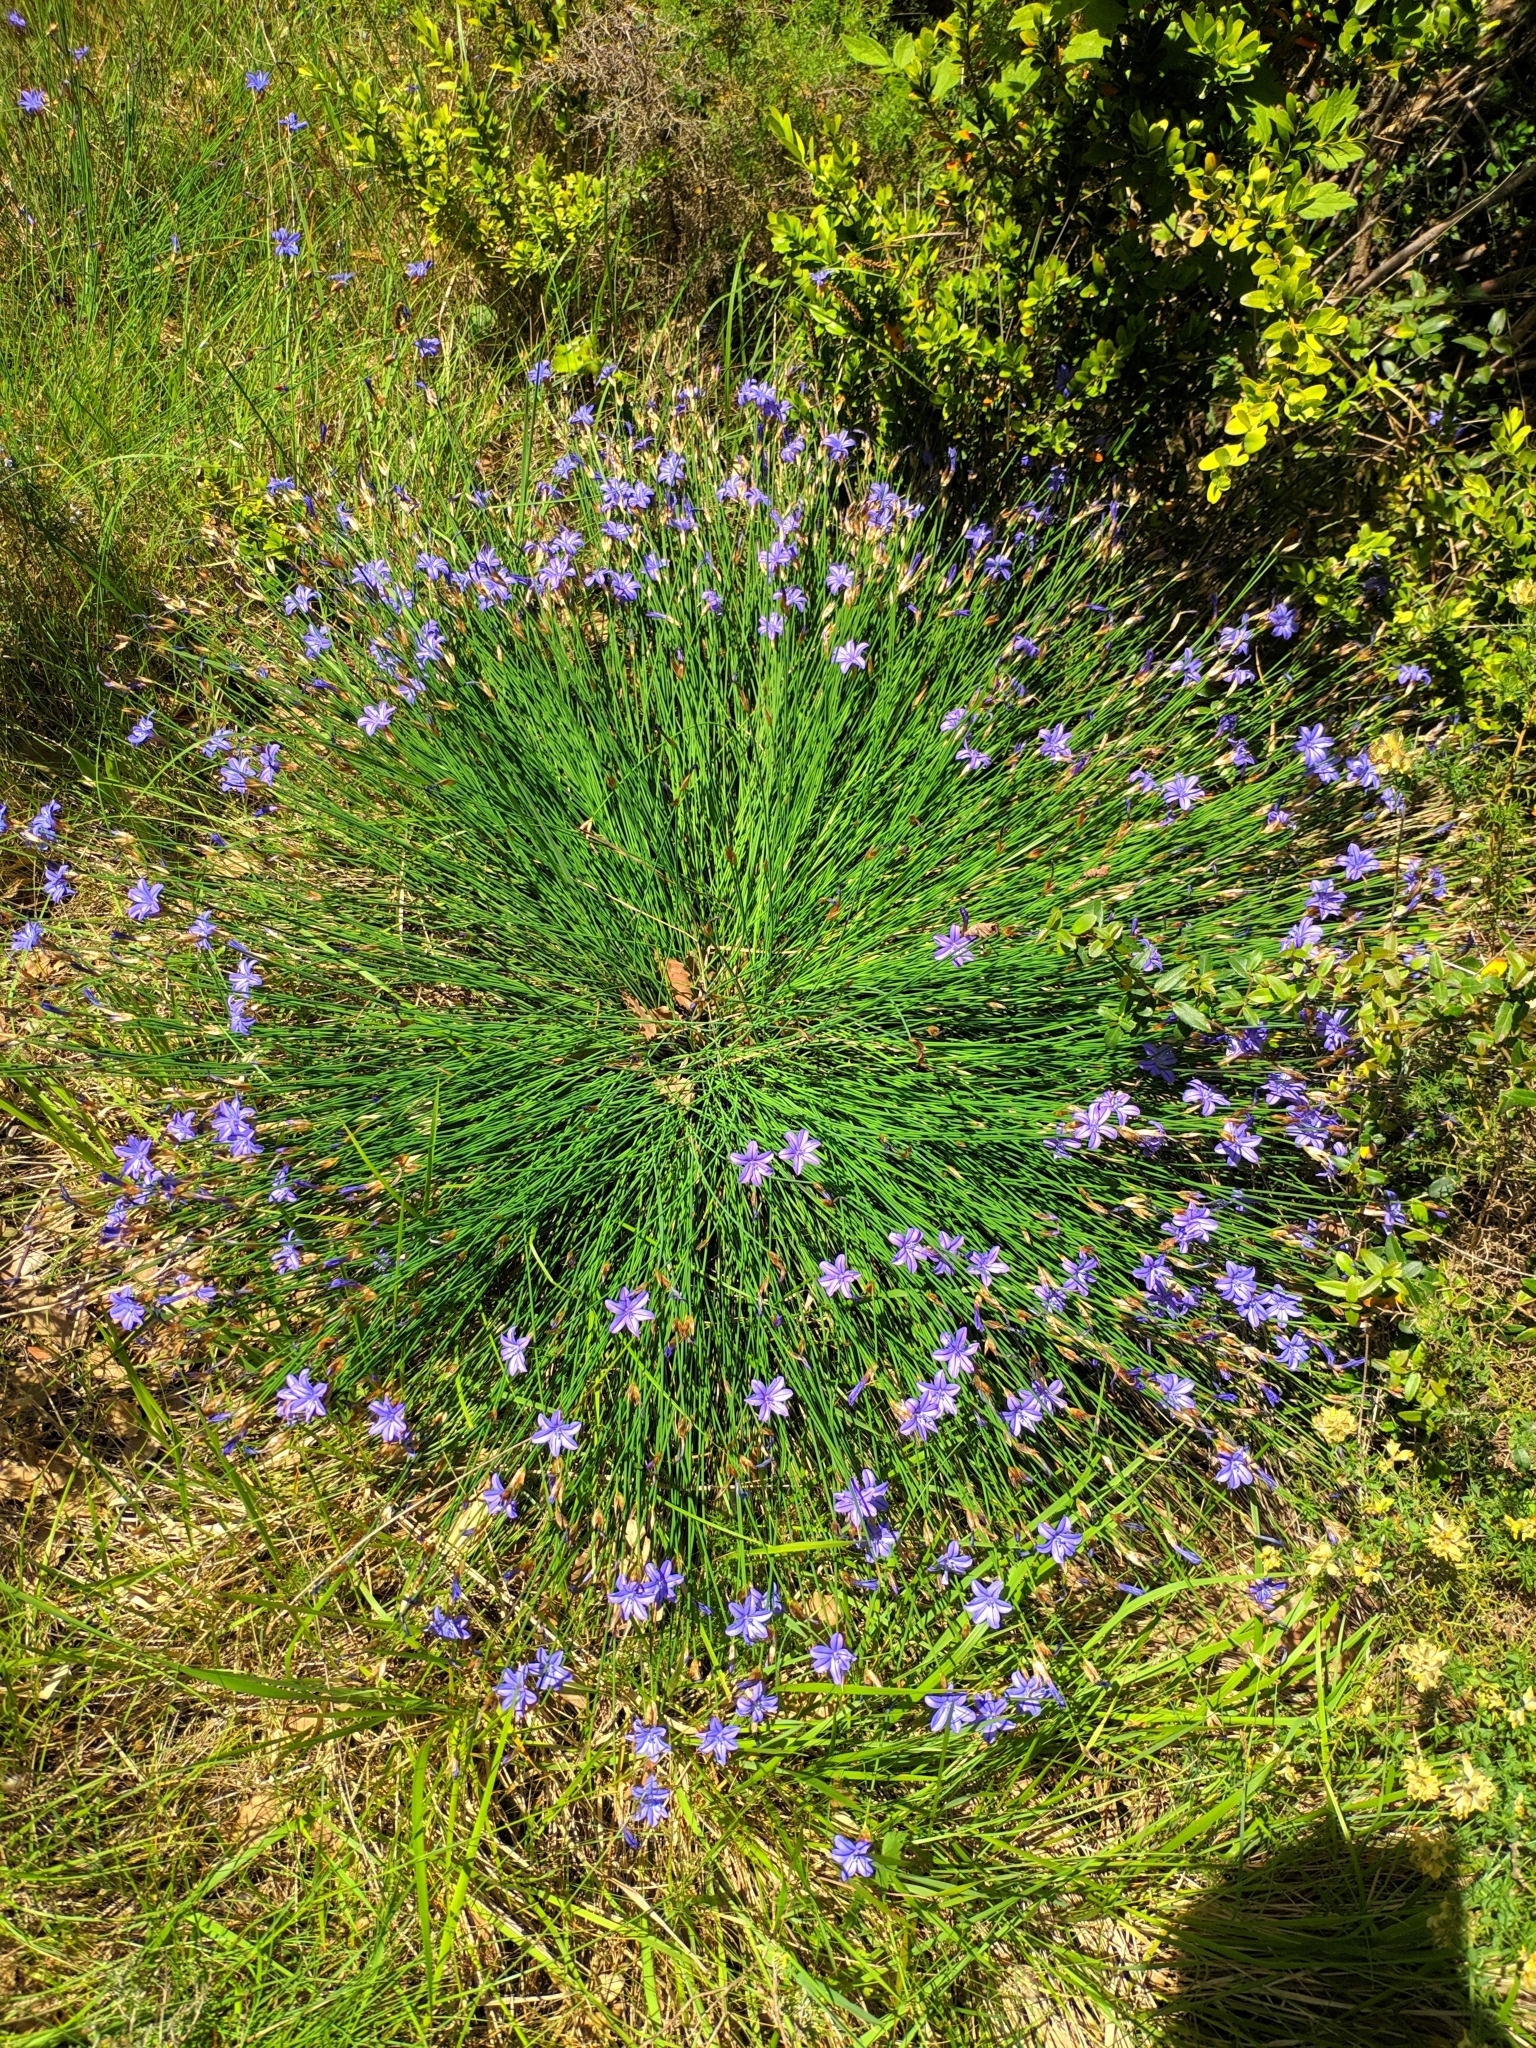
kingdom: Plantae
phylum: Tracheophyta
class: Liliopsida
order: Asparagales
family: Asparagaceae
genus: Aphyllanthes
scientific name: Aphyllanthes monspeliensis
